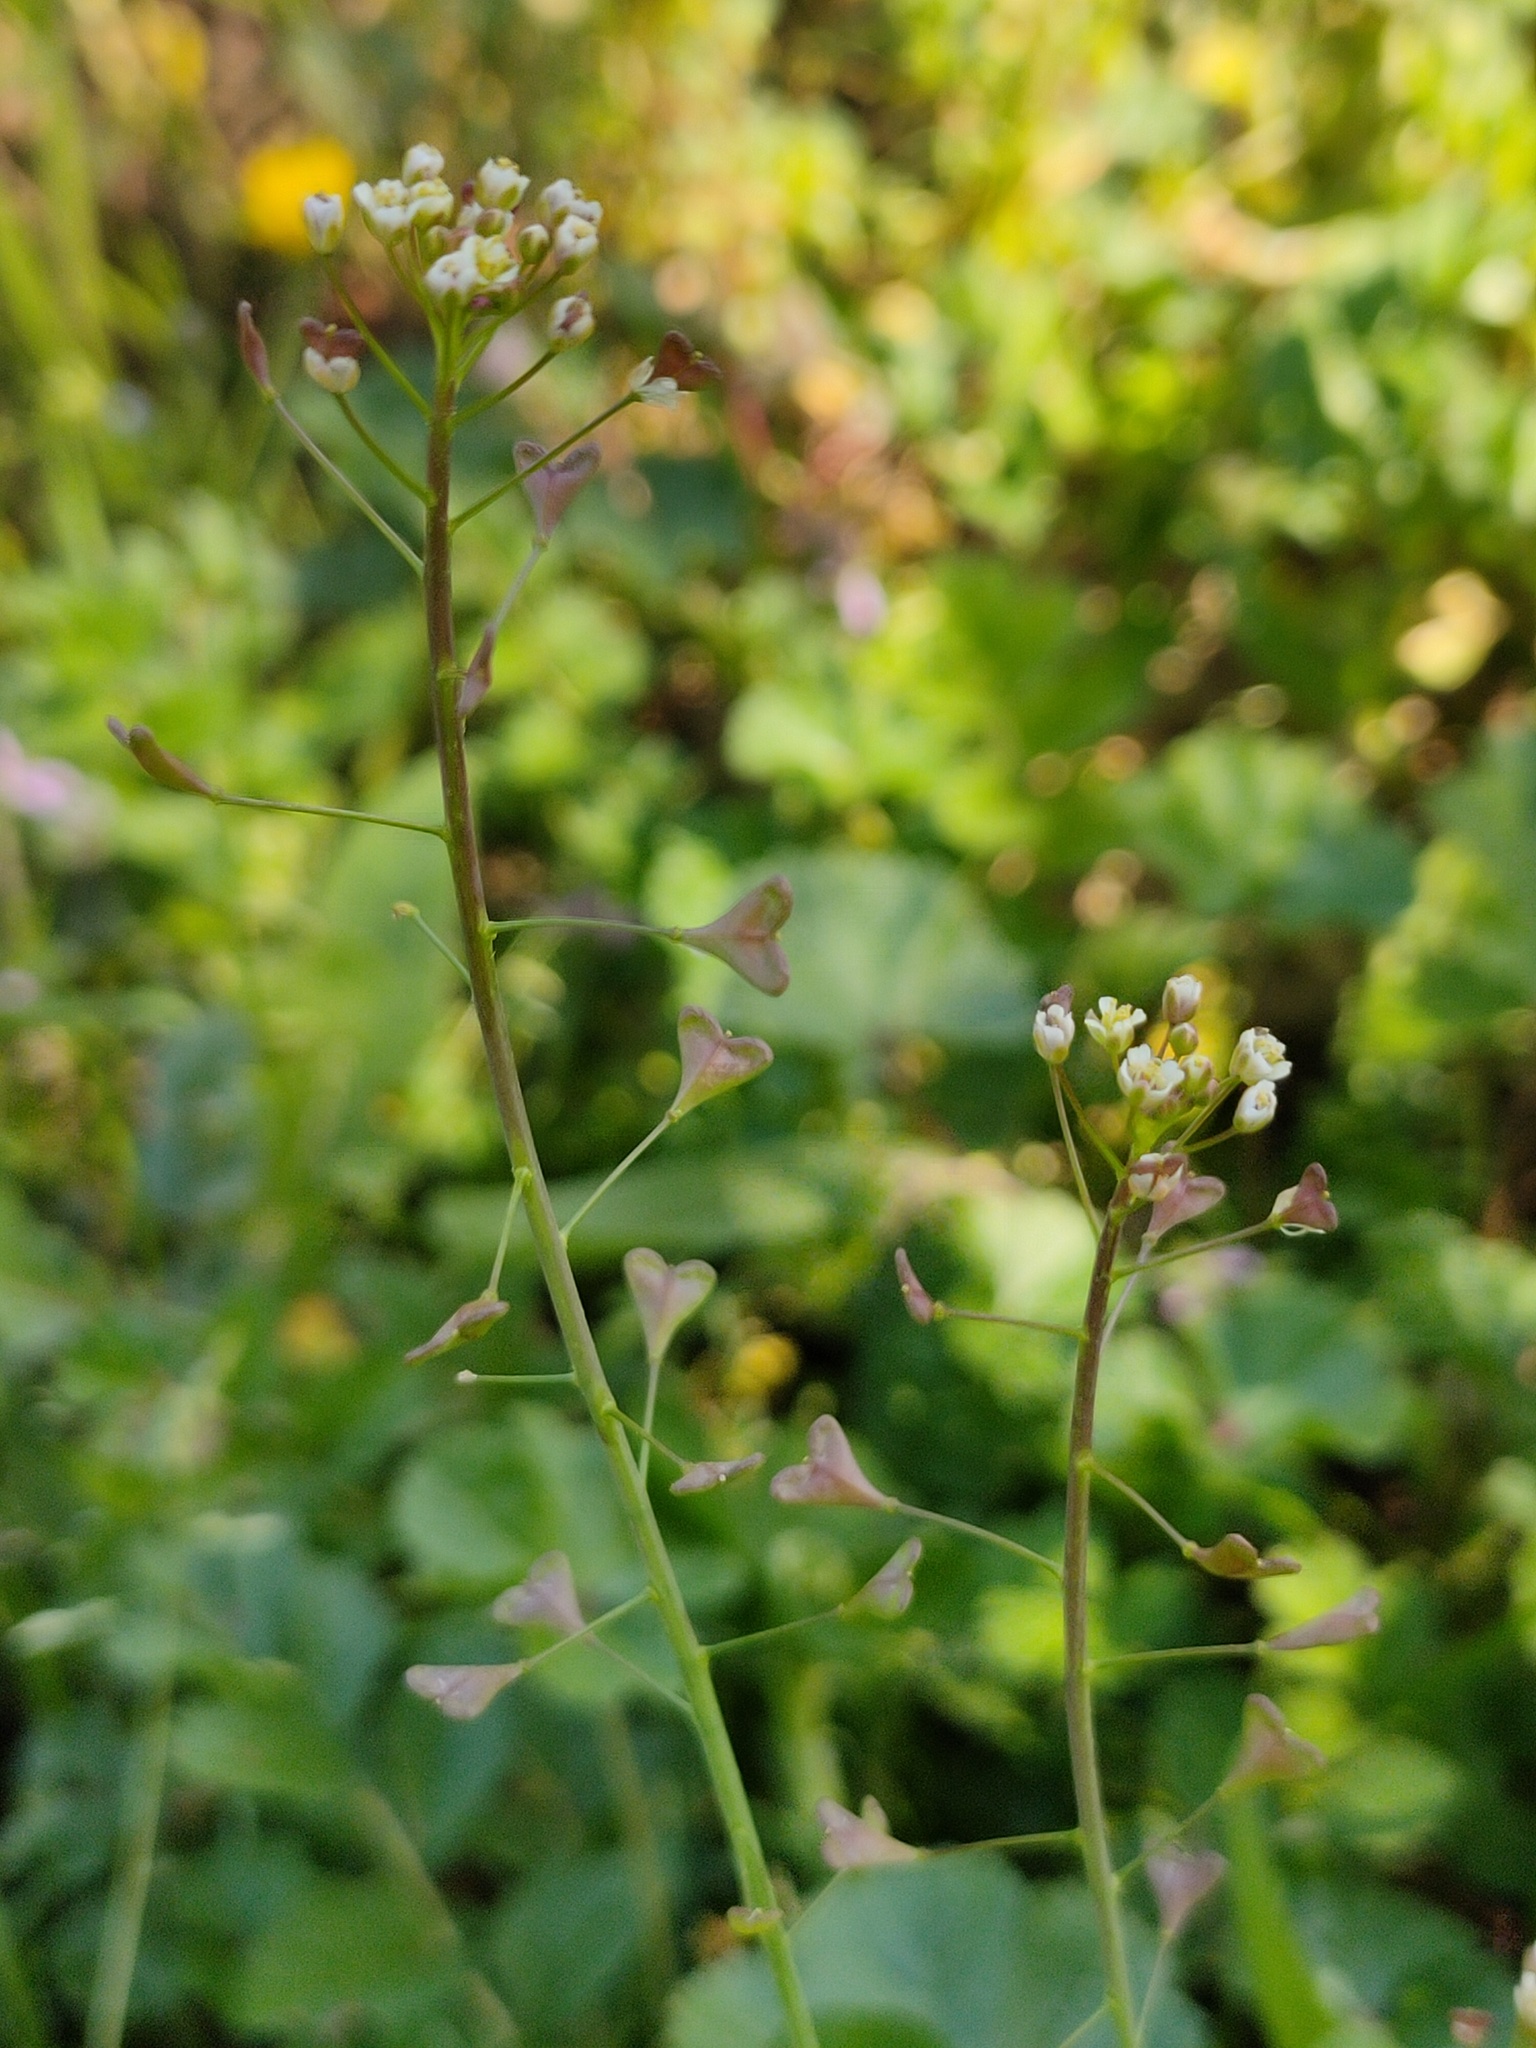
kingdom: Plantae
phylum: Tracheophyta
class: Magnoliopsida
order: Brassicales
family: Brassicaceae
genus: Capsella
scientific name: Capsella bursa-pastoris
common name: Shepherd's purse
